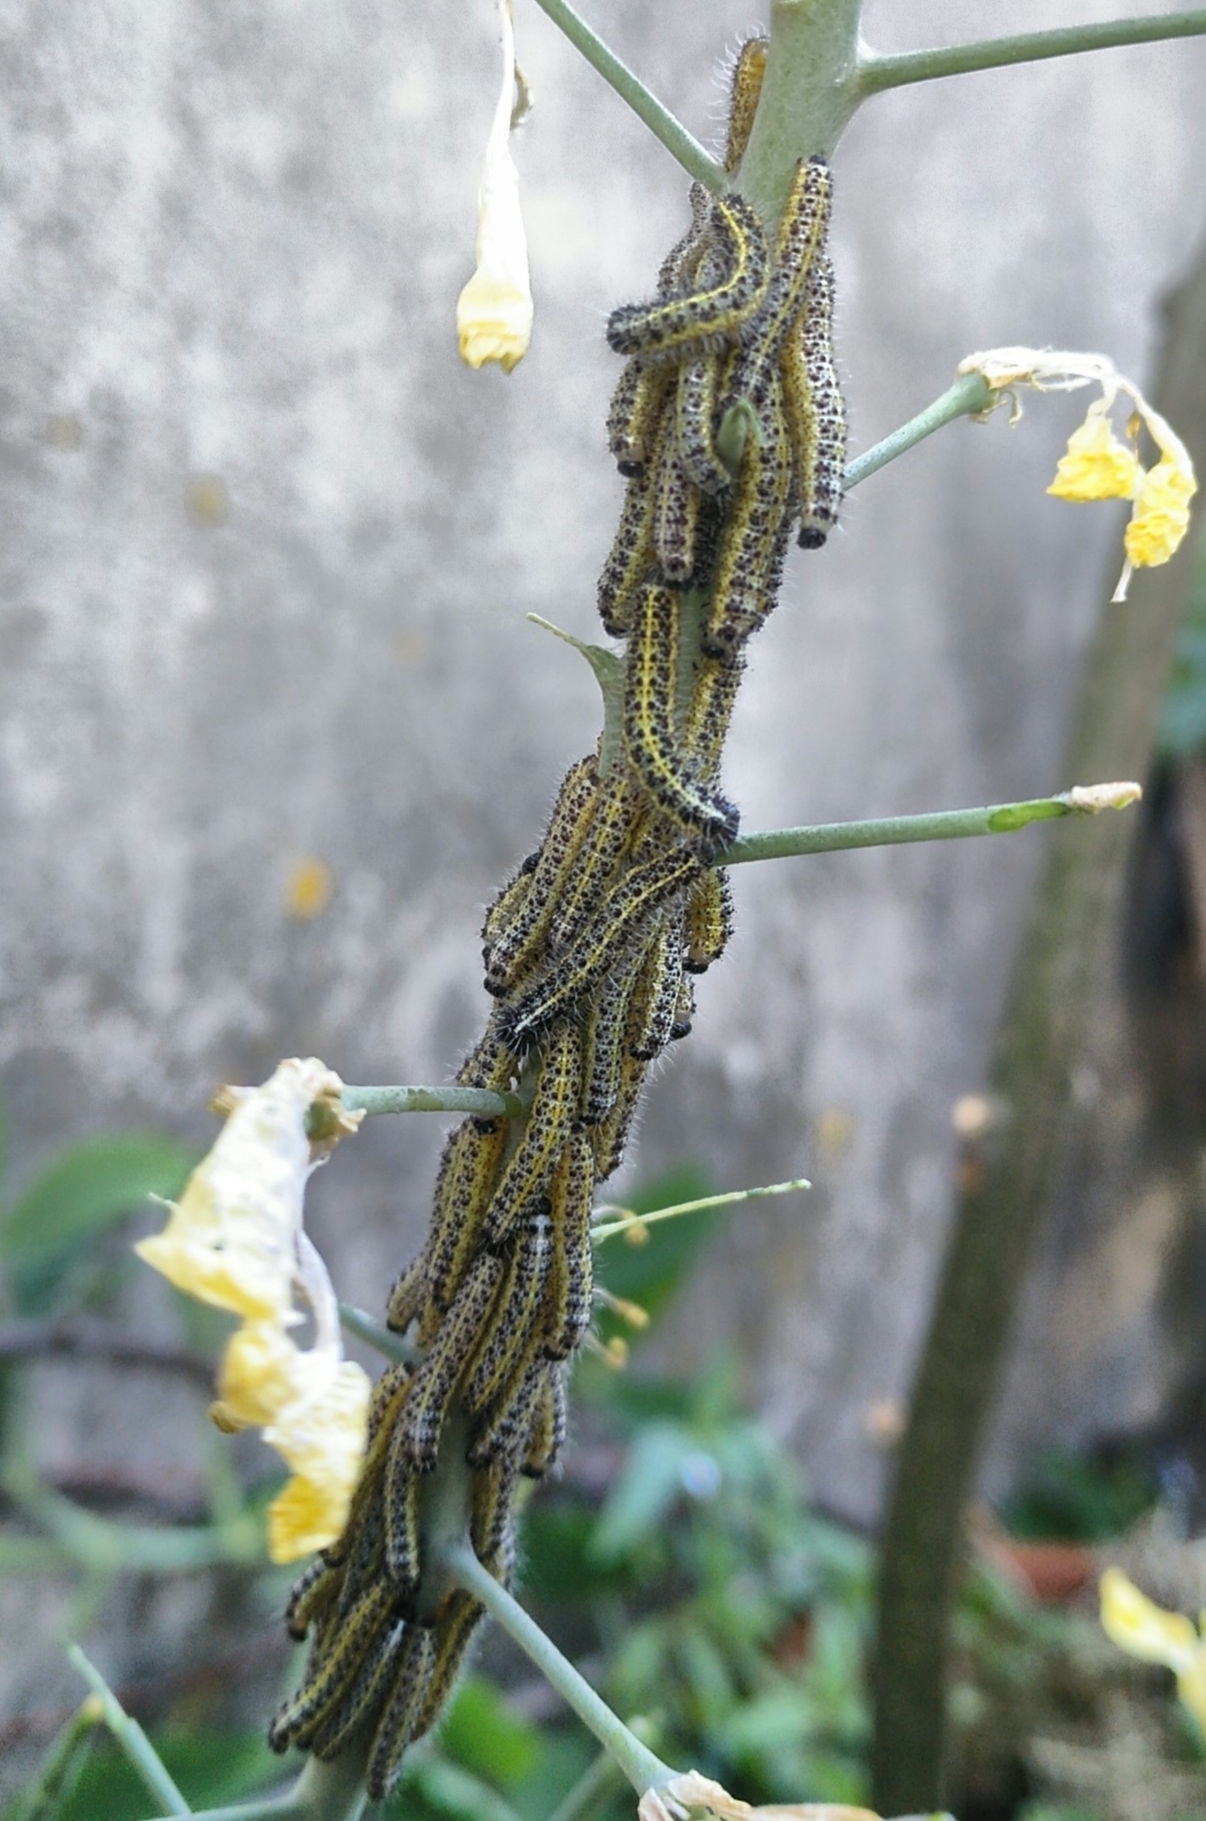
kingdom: Animalia
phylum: Arthropoda
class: Insecta
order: Lepidoptera
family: Pieridae
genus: Pieris
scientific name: Pieris brassicae
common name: Large white
